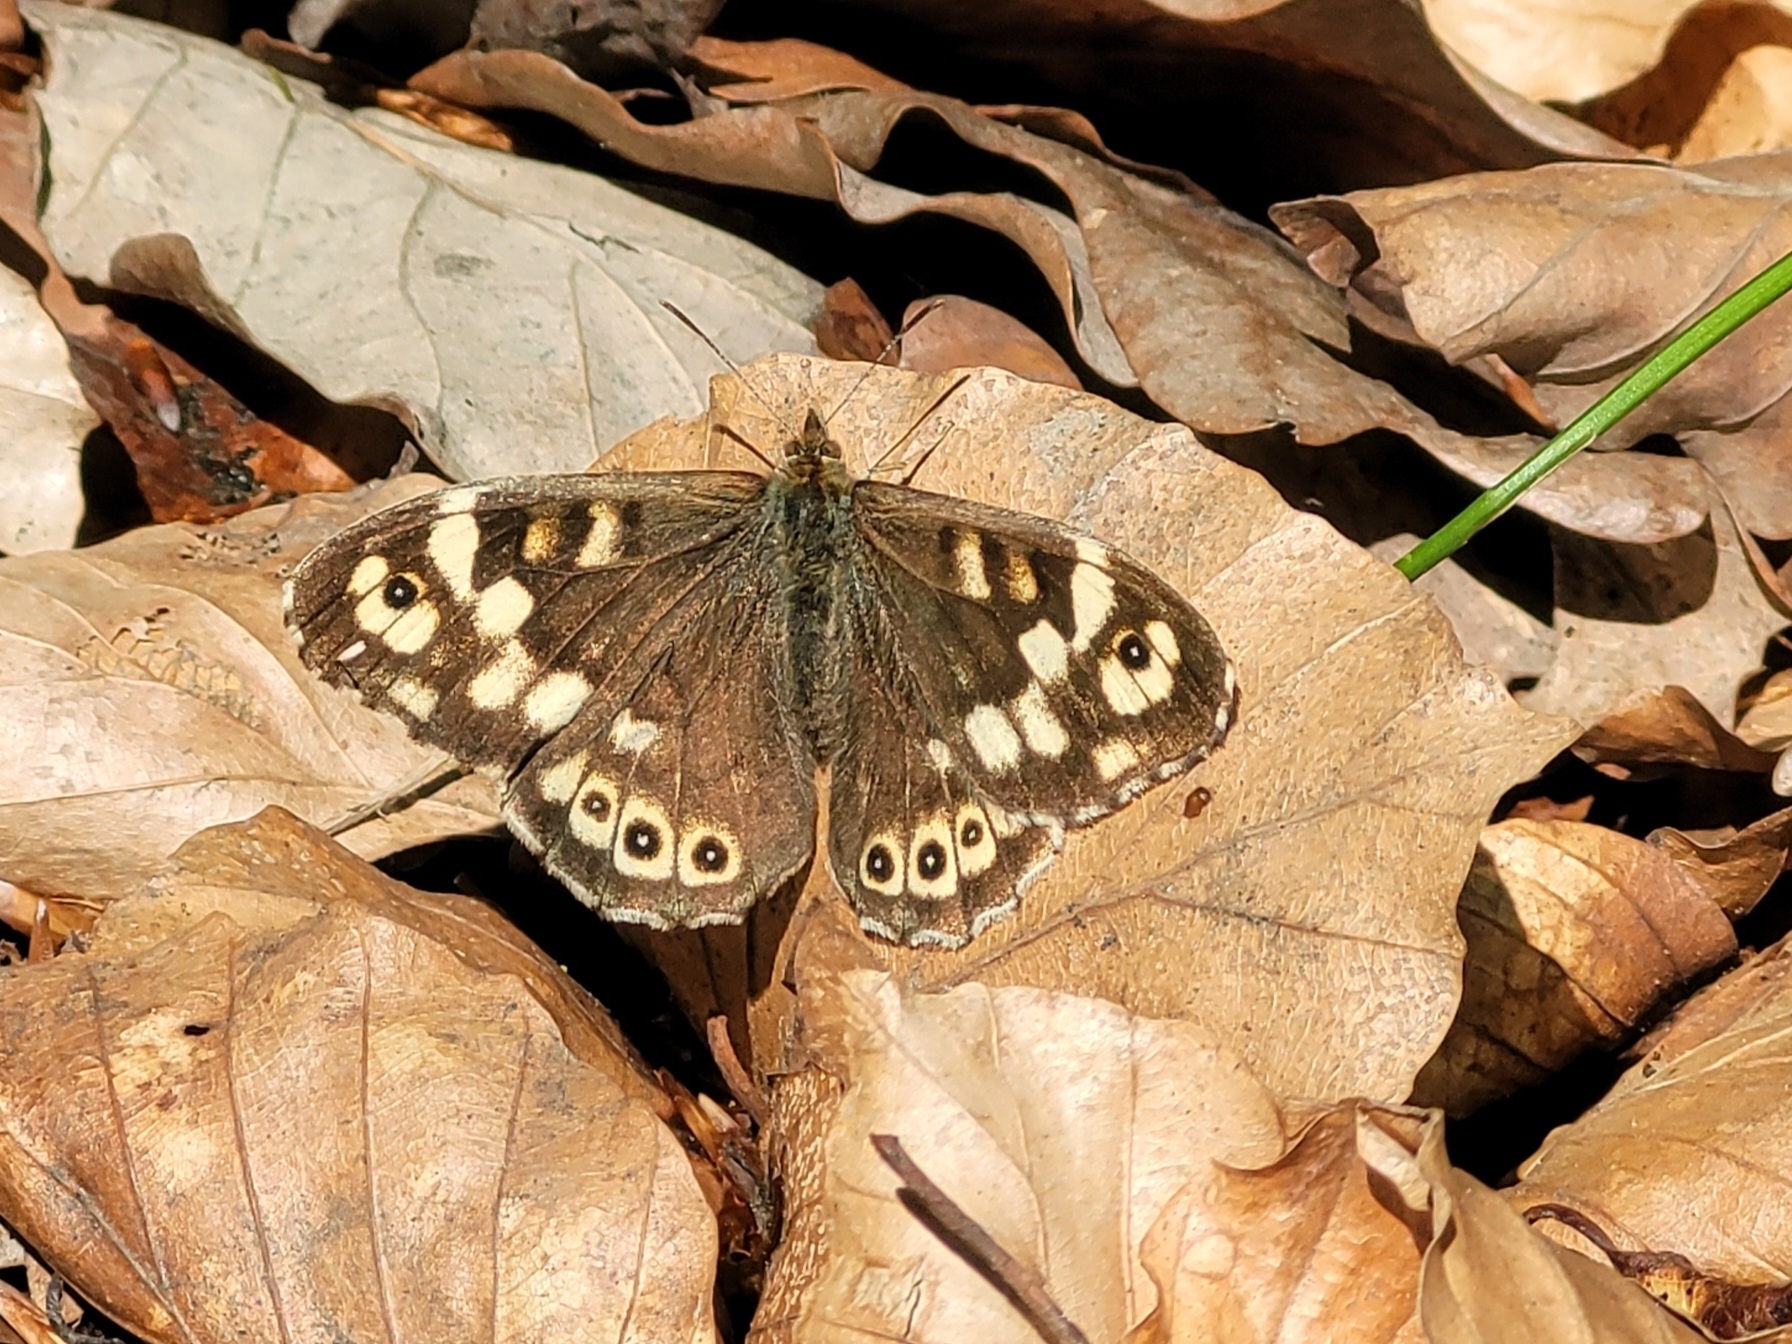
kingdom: Animalia
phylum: Arthropoda
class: Insecta
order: Lepidoptera
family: Nymphalidae
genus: Pararge
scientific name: Pararge aegeria
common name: Speckled wood
